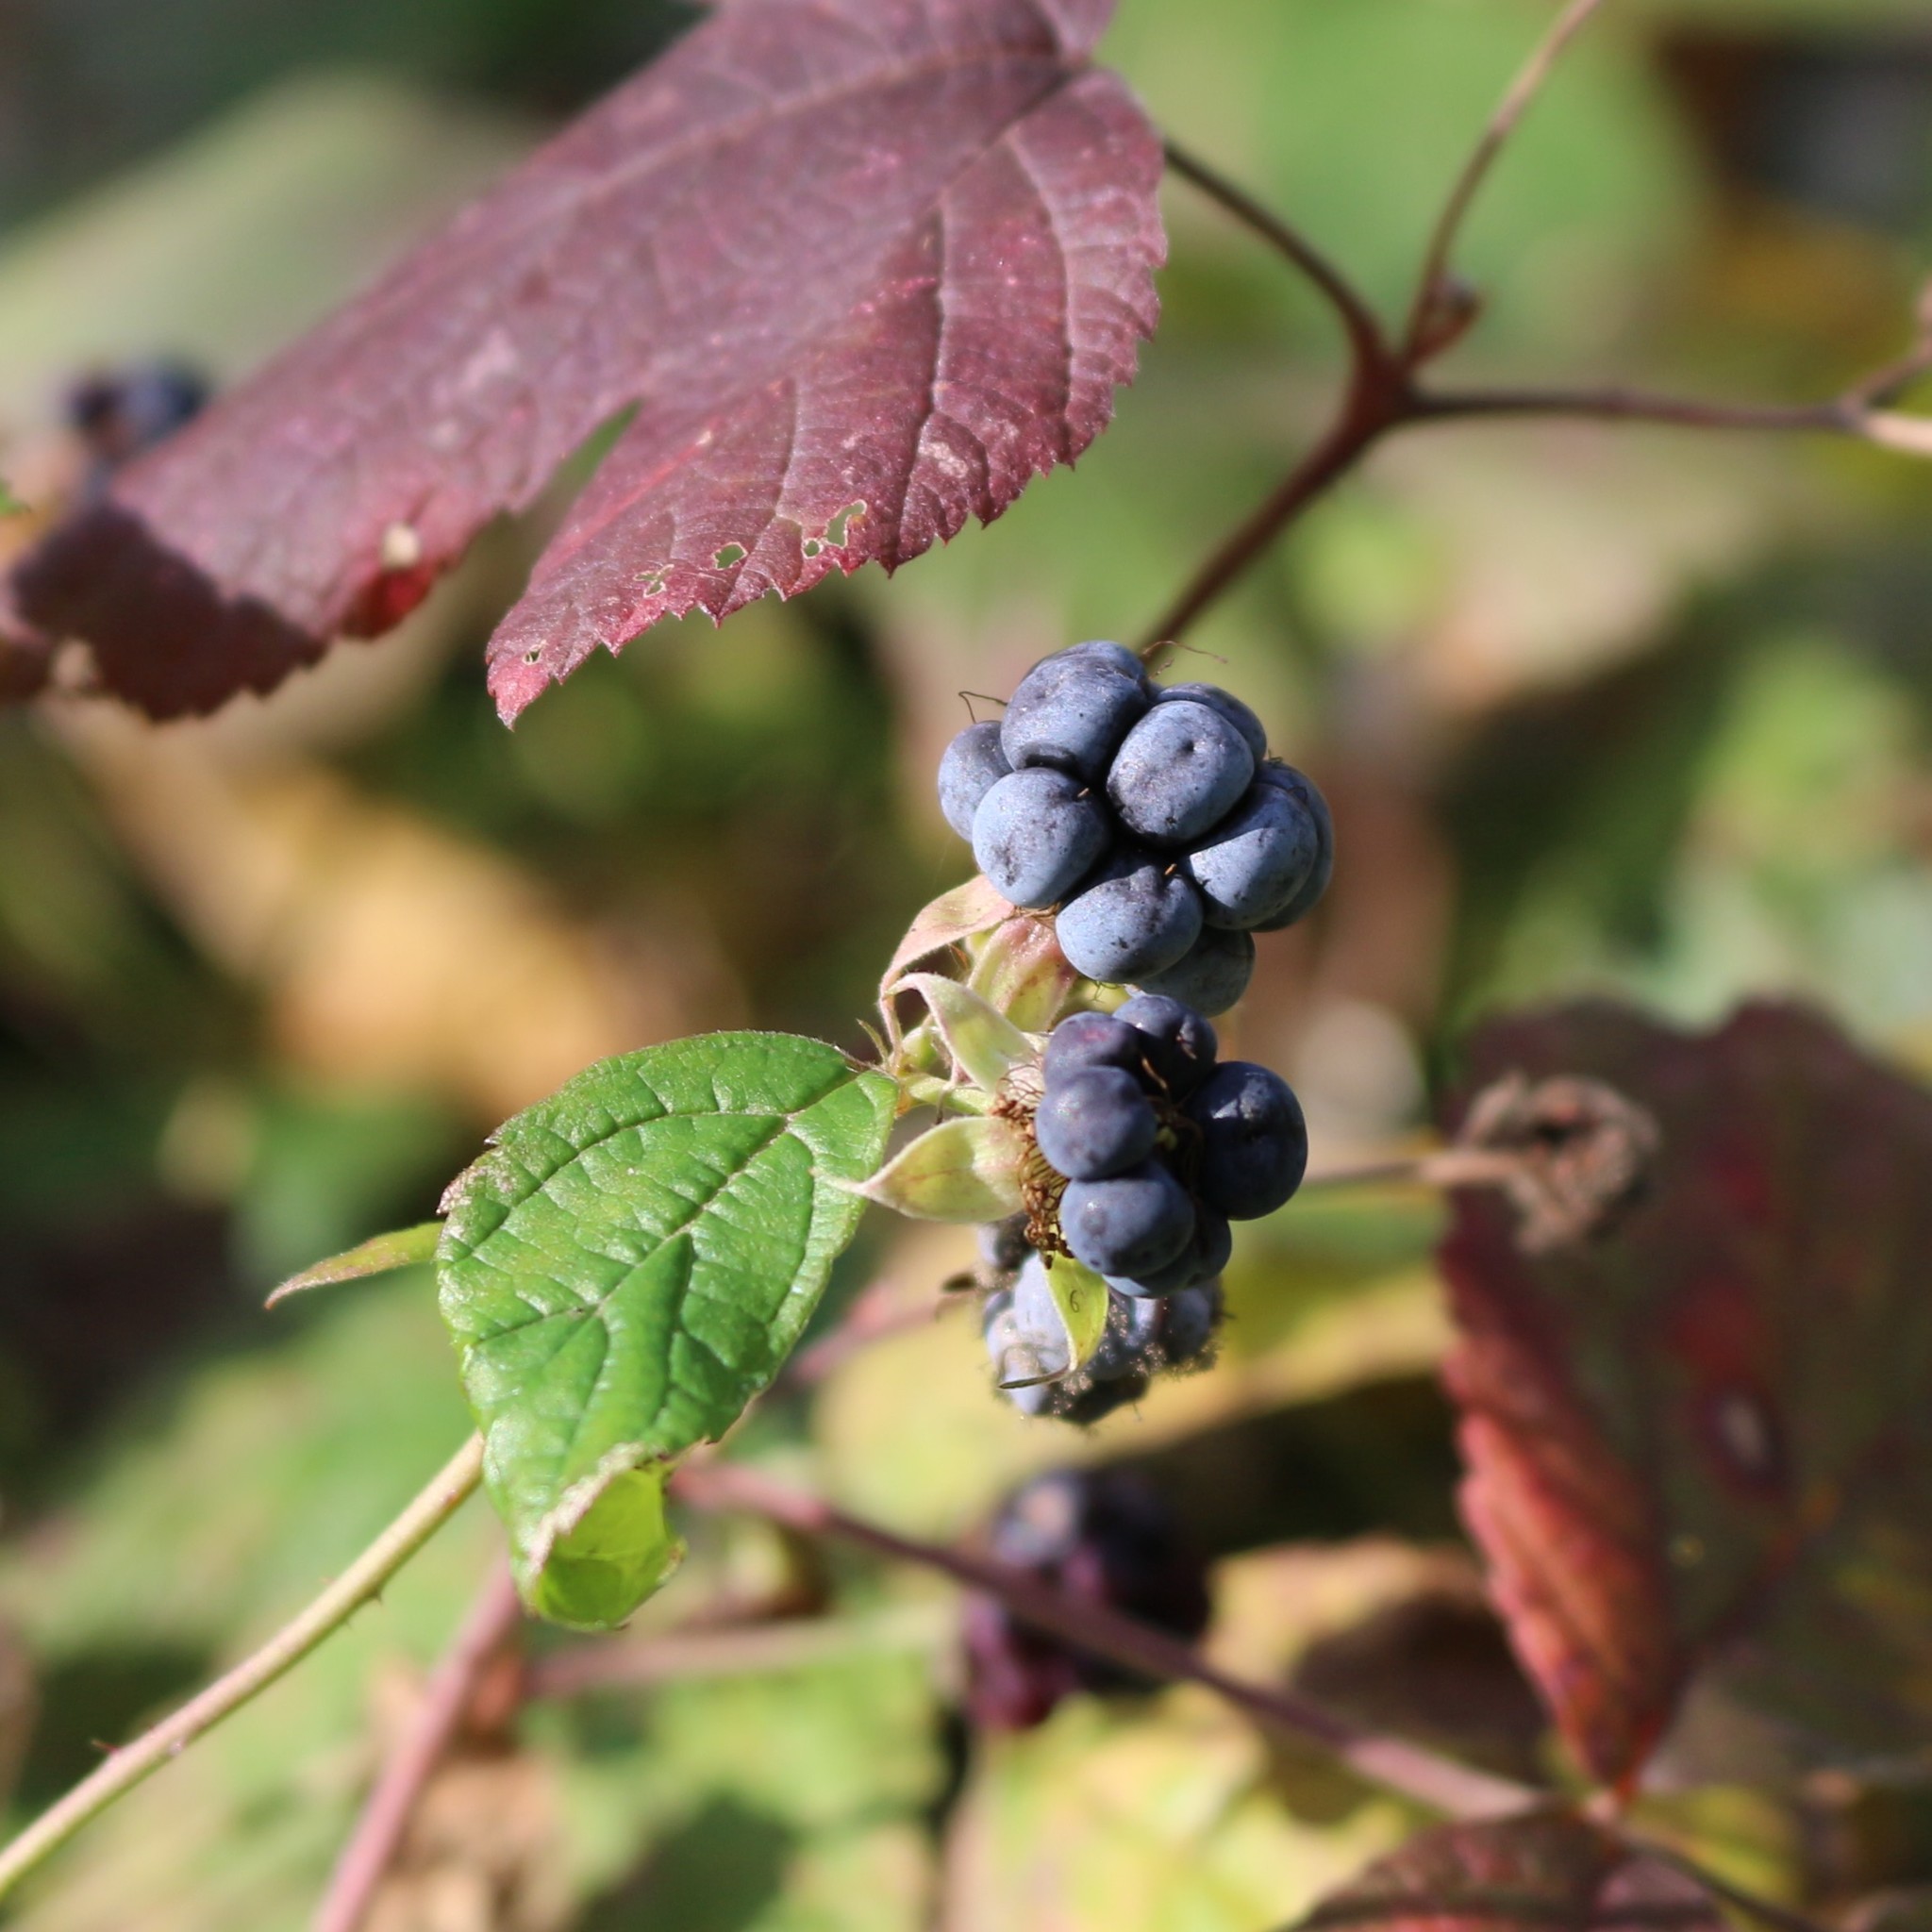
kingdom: Plantae
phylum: Tracheophyta
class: Magnoliopsida
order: Rosales
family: Rosaceae
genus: Rubus
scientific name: Rubus caesius
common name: Dewberry
